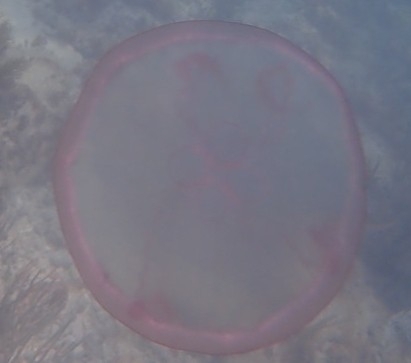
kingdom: Animalia
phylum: Cnidaria
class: Scyphozoa
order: Semaeostomeae
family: Ulmaridae
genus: Aurelia
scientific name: Aurelia marginalis
